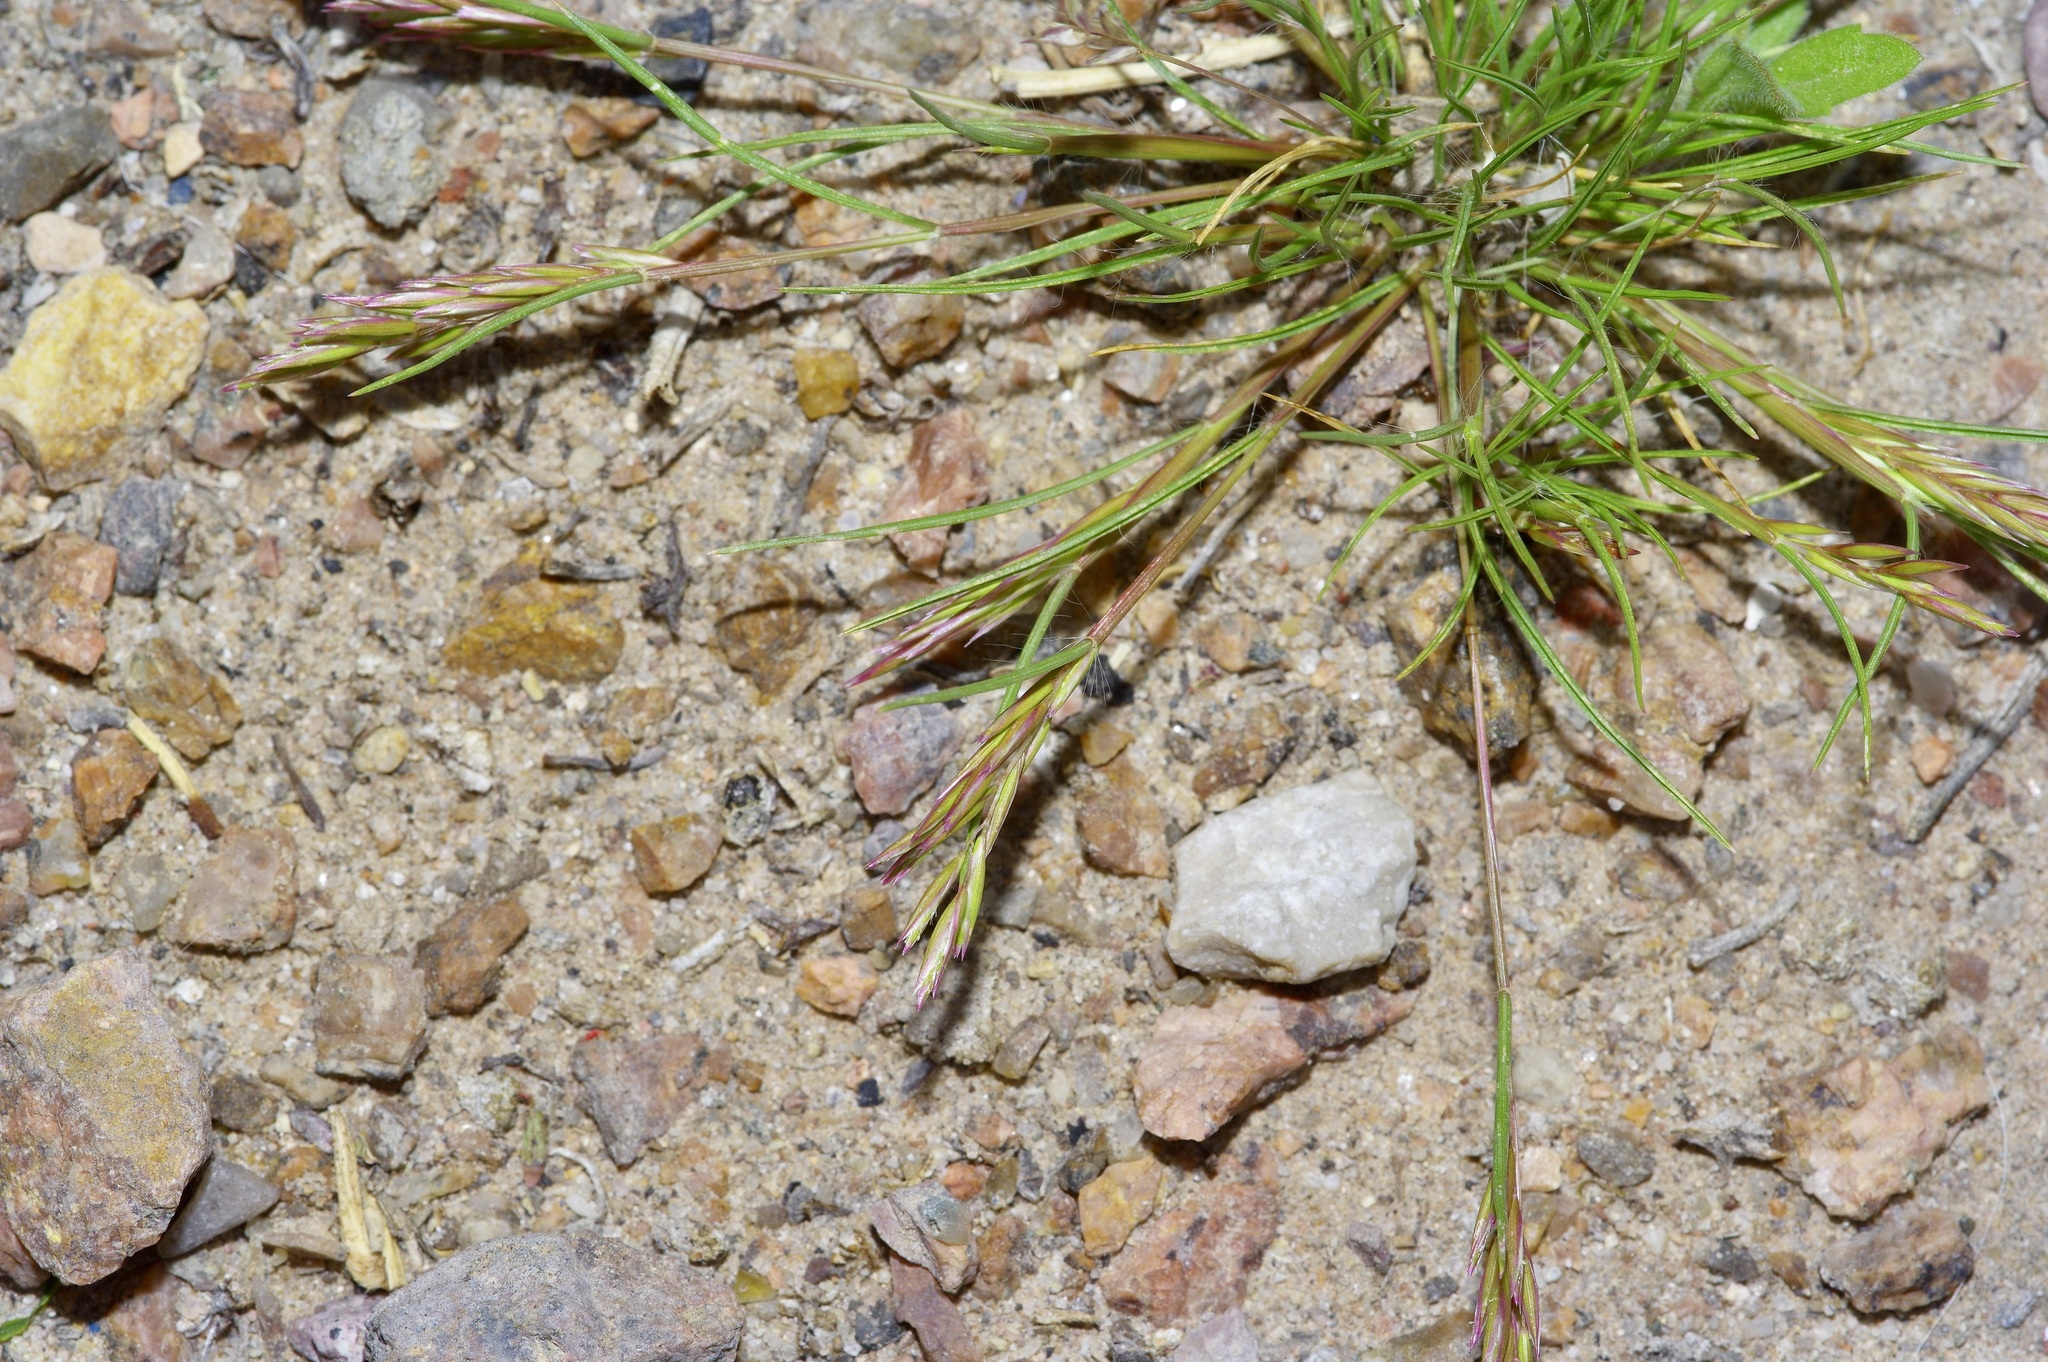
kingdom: Plantae
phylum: Tracheophyta
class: Liliopsida
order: Poales
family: Poaceae
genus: Schismus
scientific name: Schismus barbatus
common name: Kelch-grass
